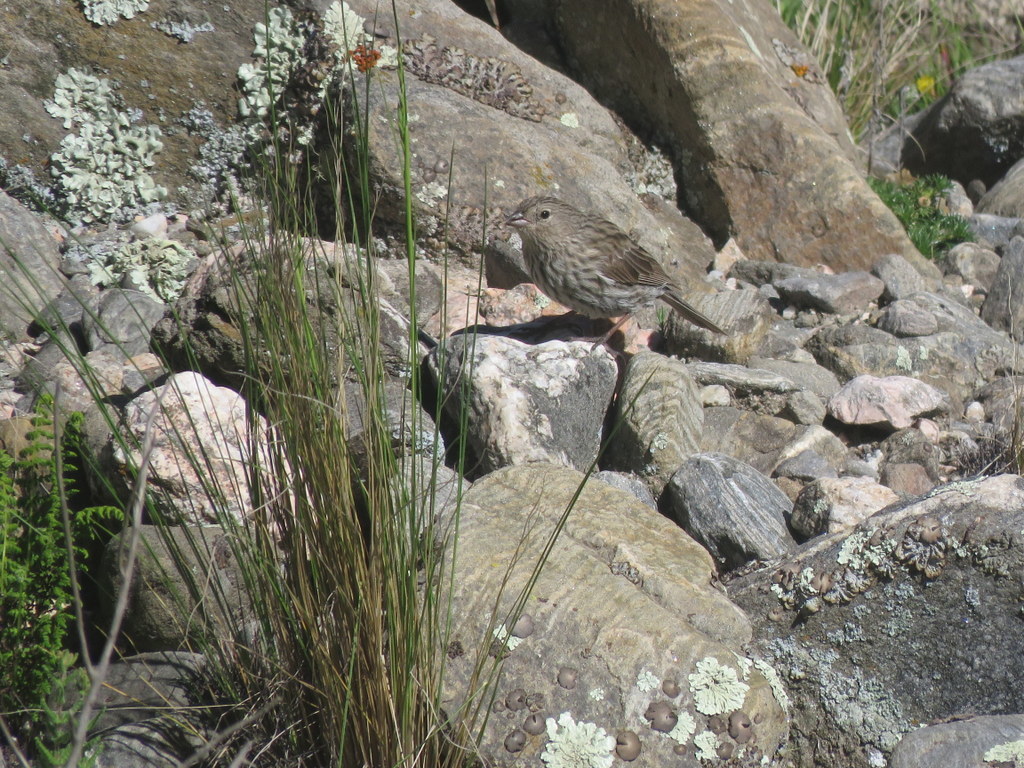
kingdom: Animalia
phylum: Chordata
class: Aves
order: Passeriformes
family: Thraupidae
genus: Geospizopsis
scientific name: Geospizopsis unicolor
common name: Plumbeous sierra-finch
